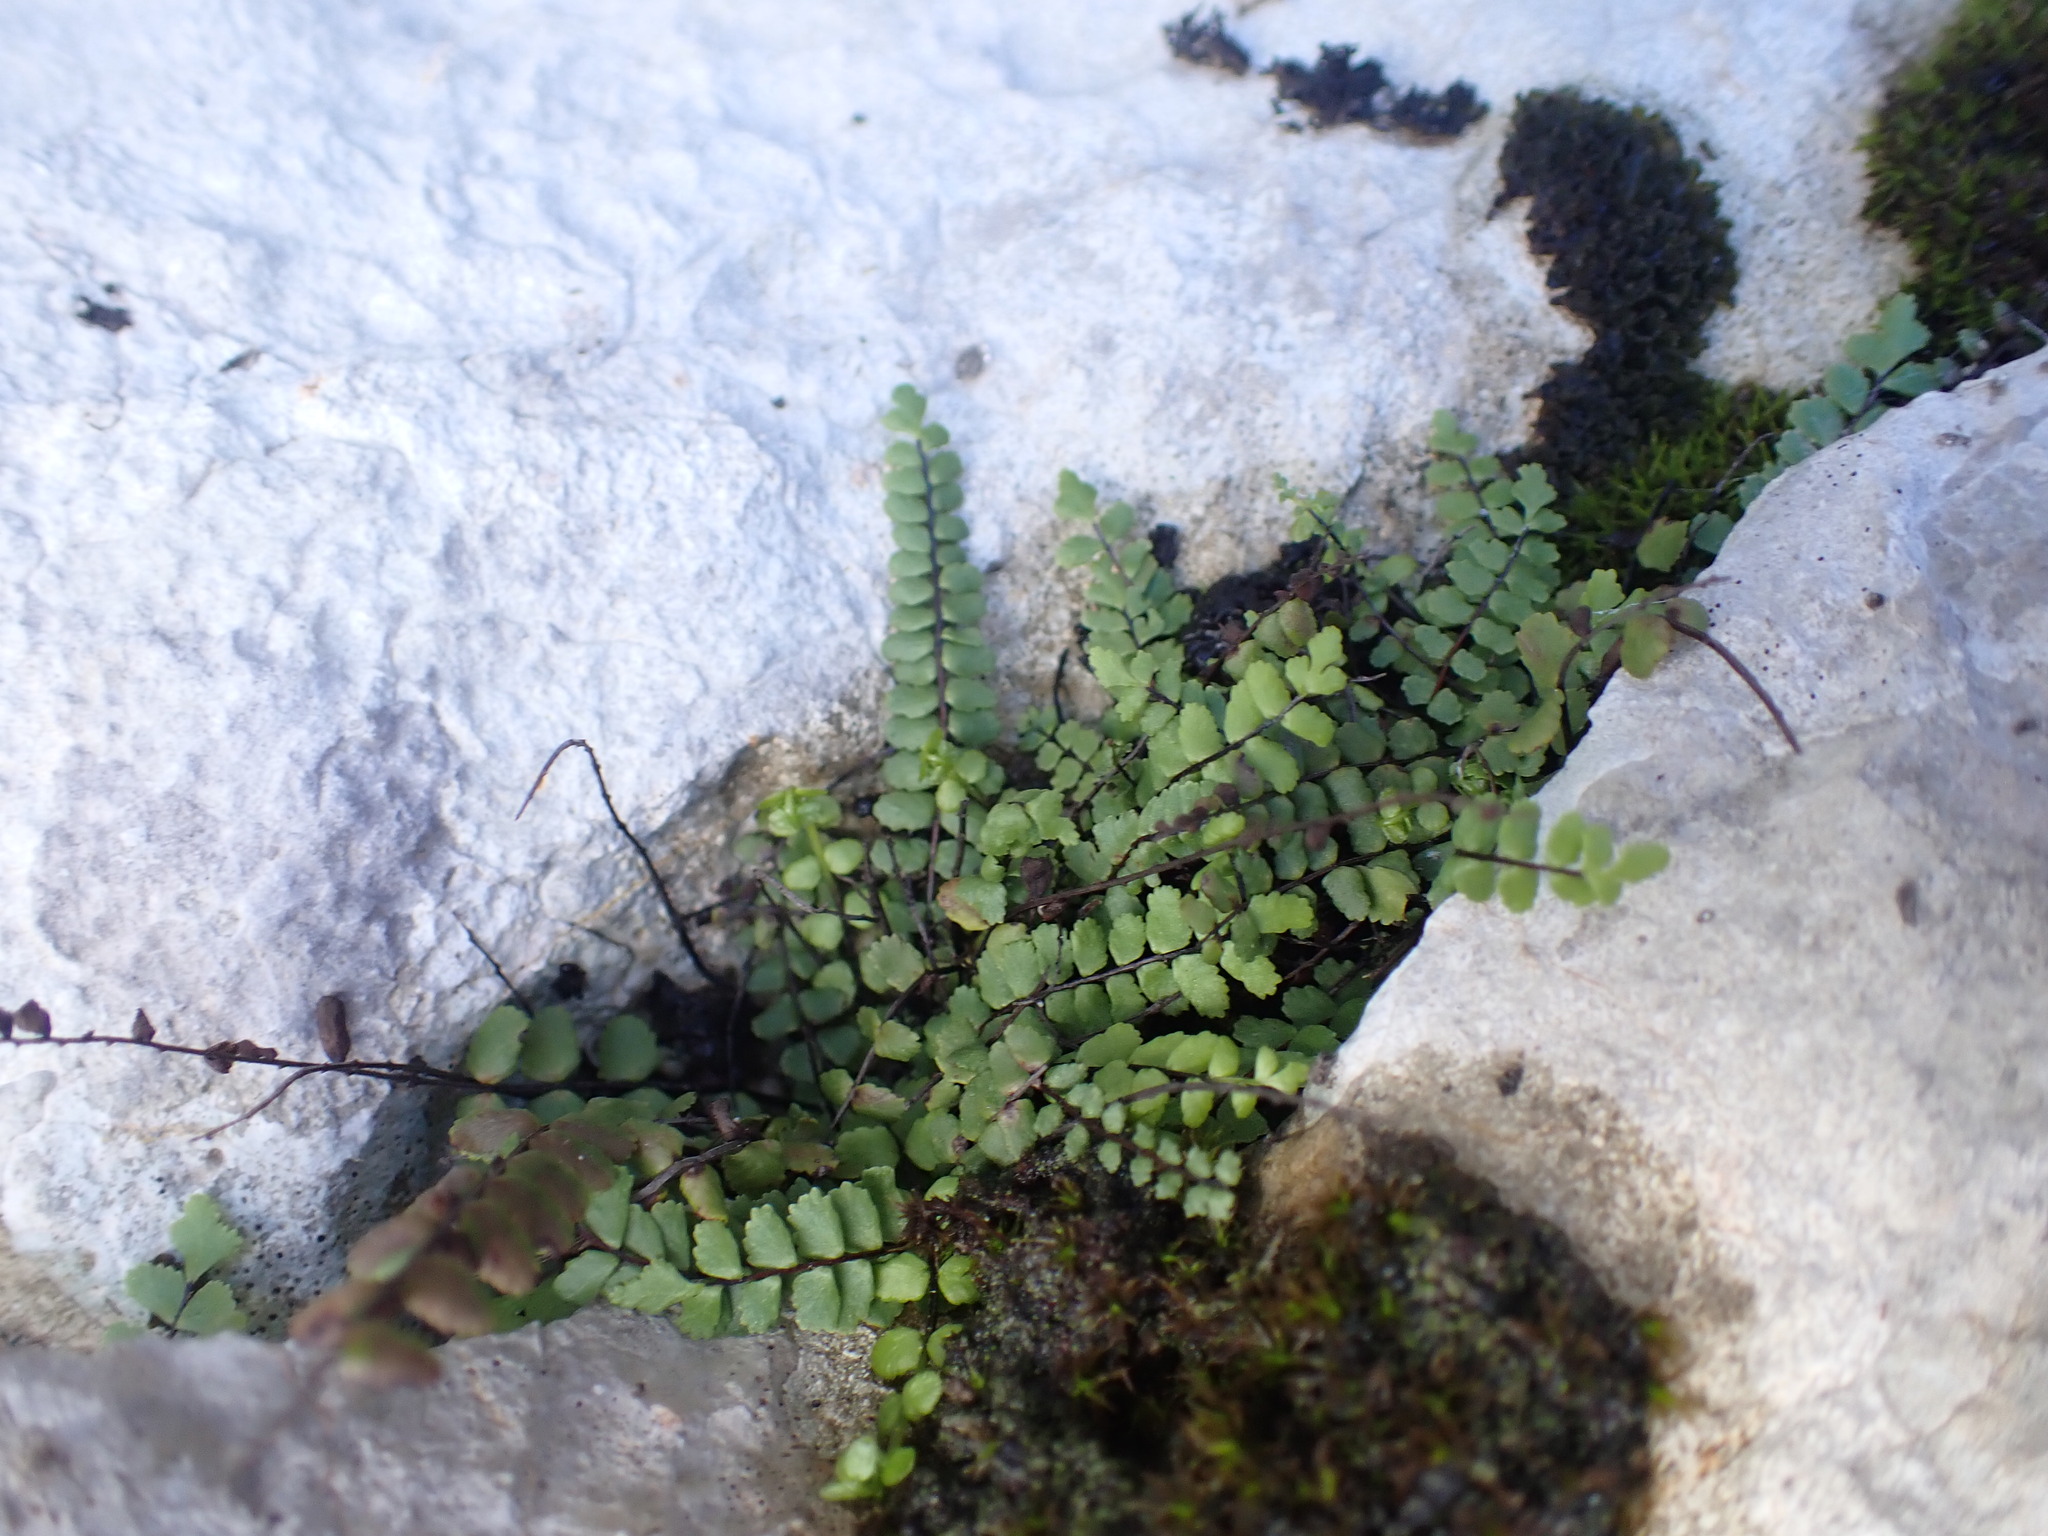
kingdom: Plantae
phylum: Tracheophyta
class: Polypodiopsida
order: Polypodiales
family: Aspleniaceae
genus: Asplenium
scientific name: Asplenium trichomanes
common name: Maidenhair spleenwort
